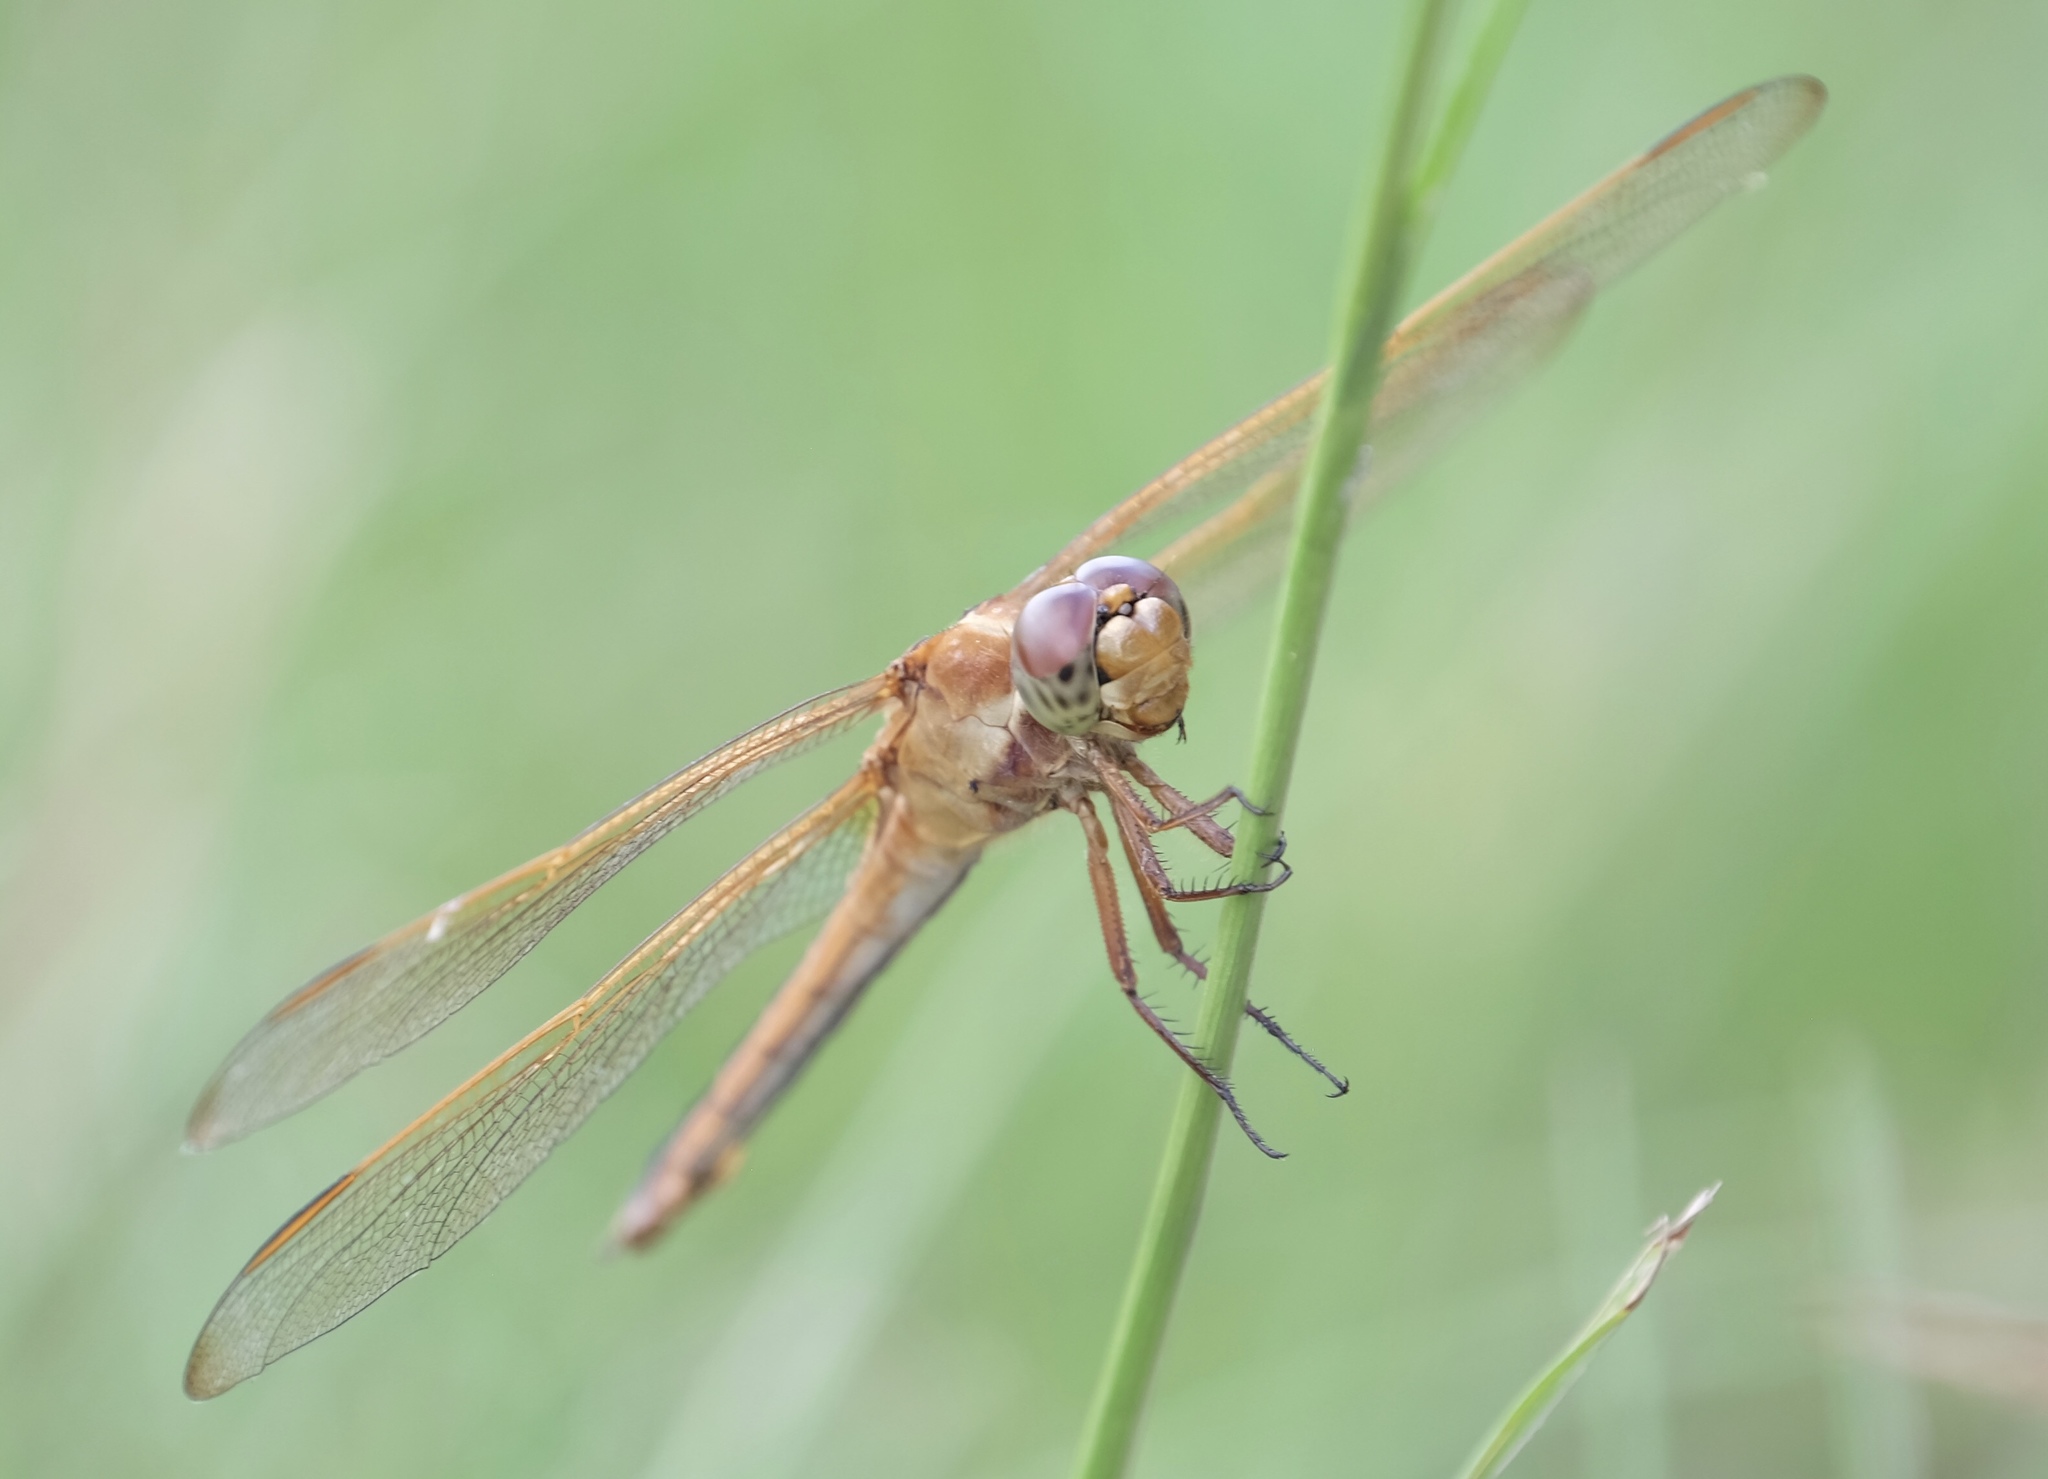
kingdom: Animalia
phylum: Arthropoda
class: Insecta
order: Odonata
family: Libellulidae
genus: Libellula
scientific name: Libellula needhami
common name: Needham's skimmer
